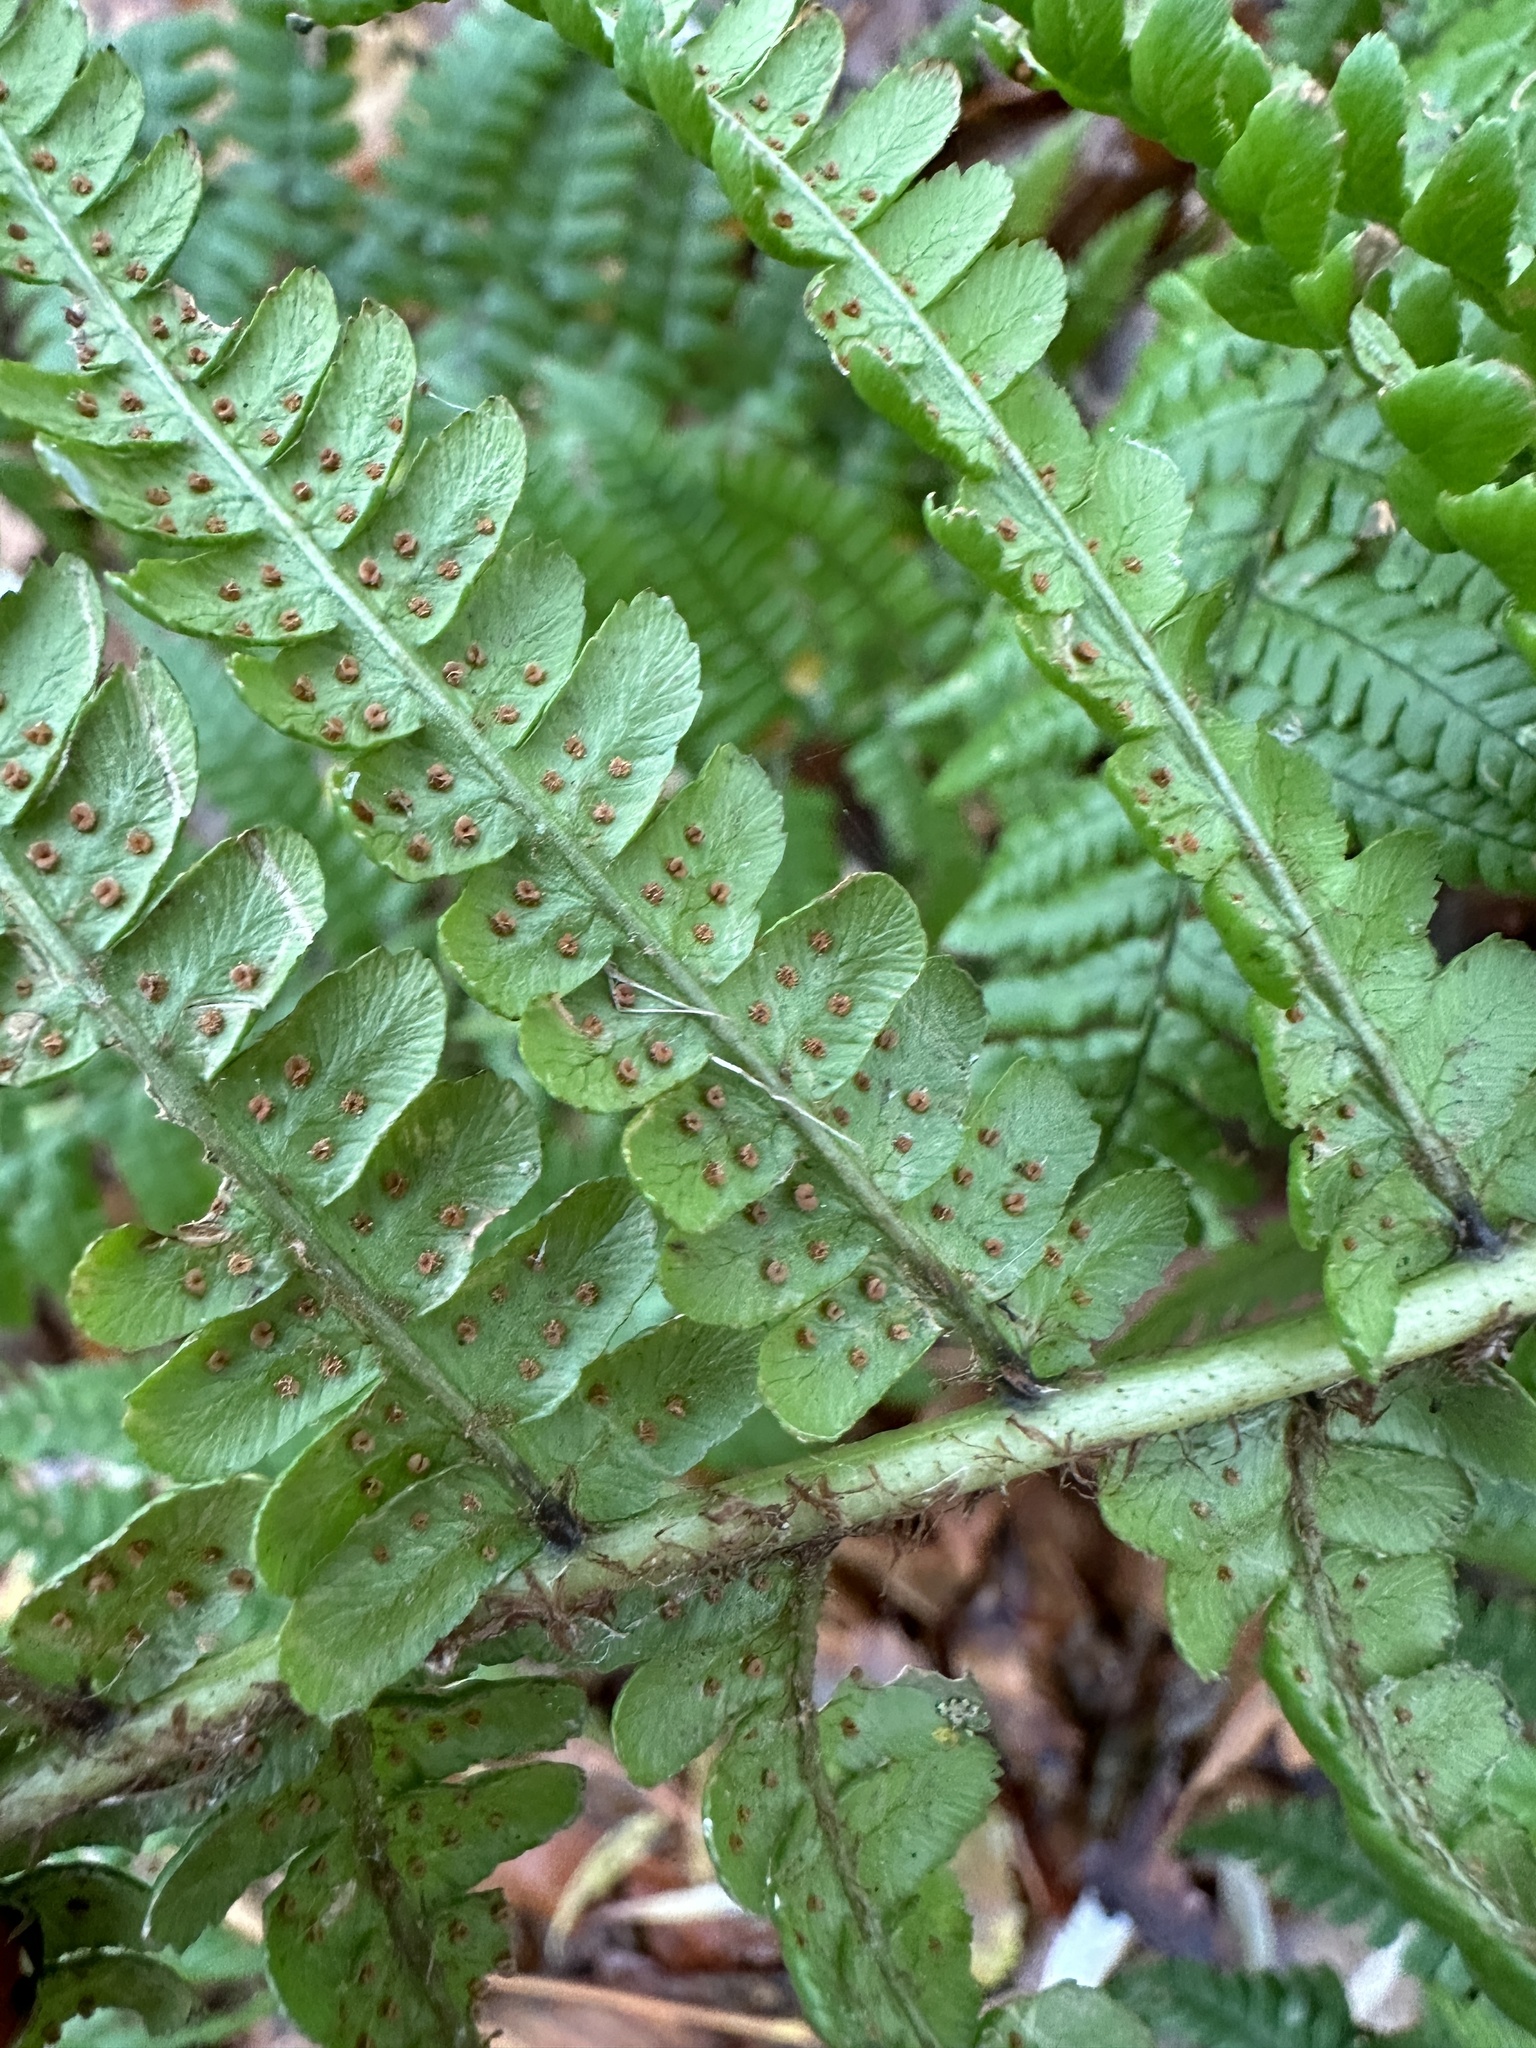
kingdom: Plantae
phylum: Tracheophyta
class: Polypodiopsida
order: Polypodiales
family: Dryopteridaceae
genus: Dryopteris
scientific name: Dryopteris affinis
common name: Scaly male fern
